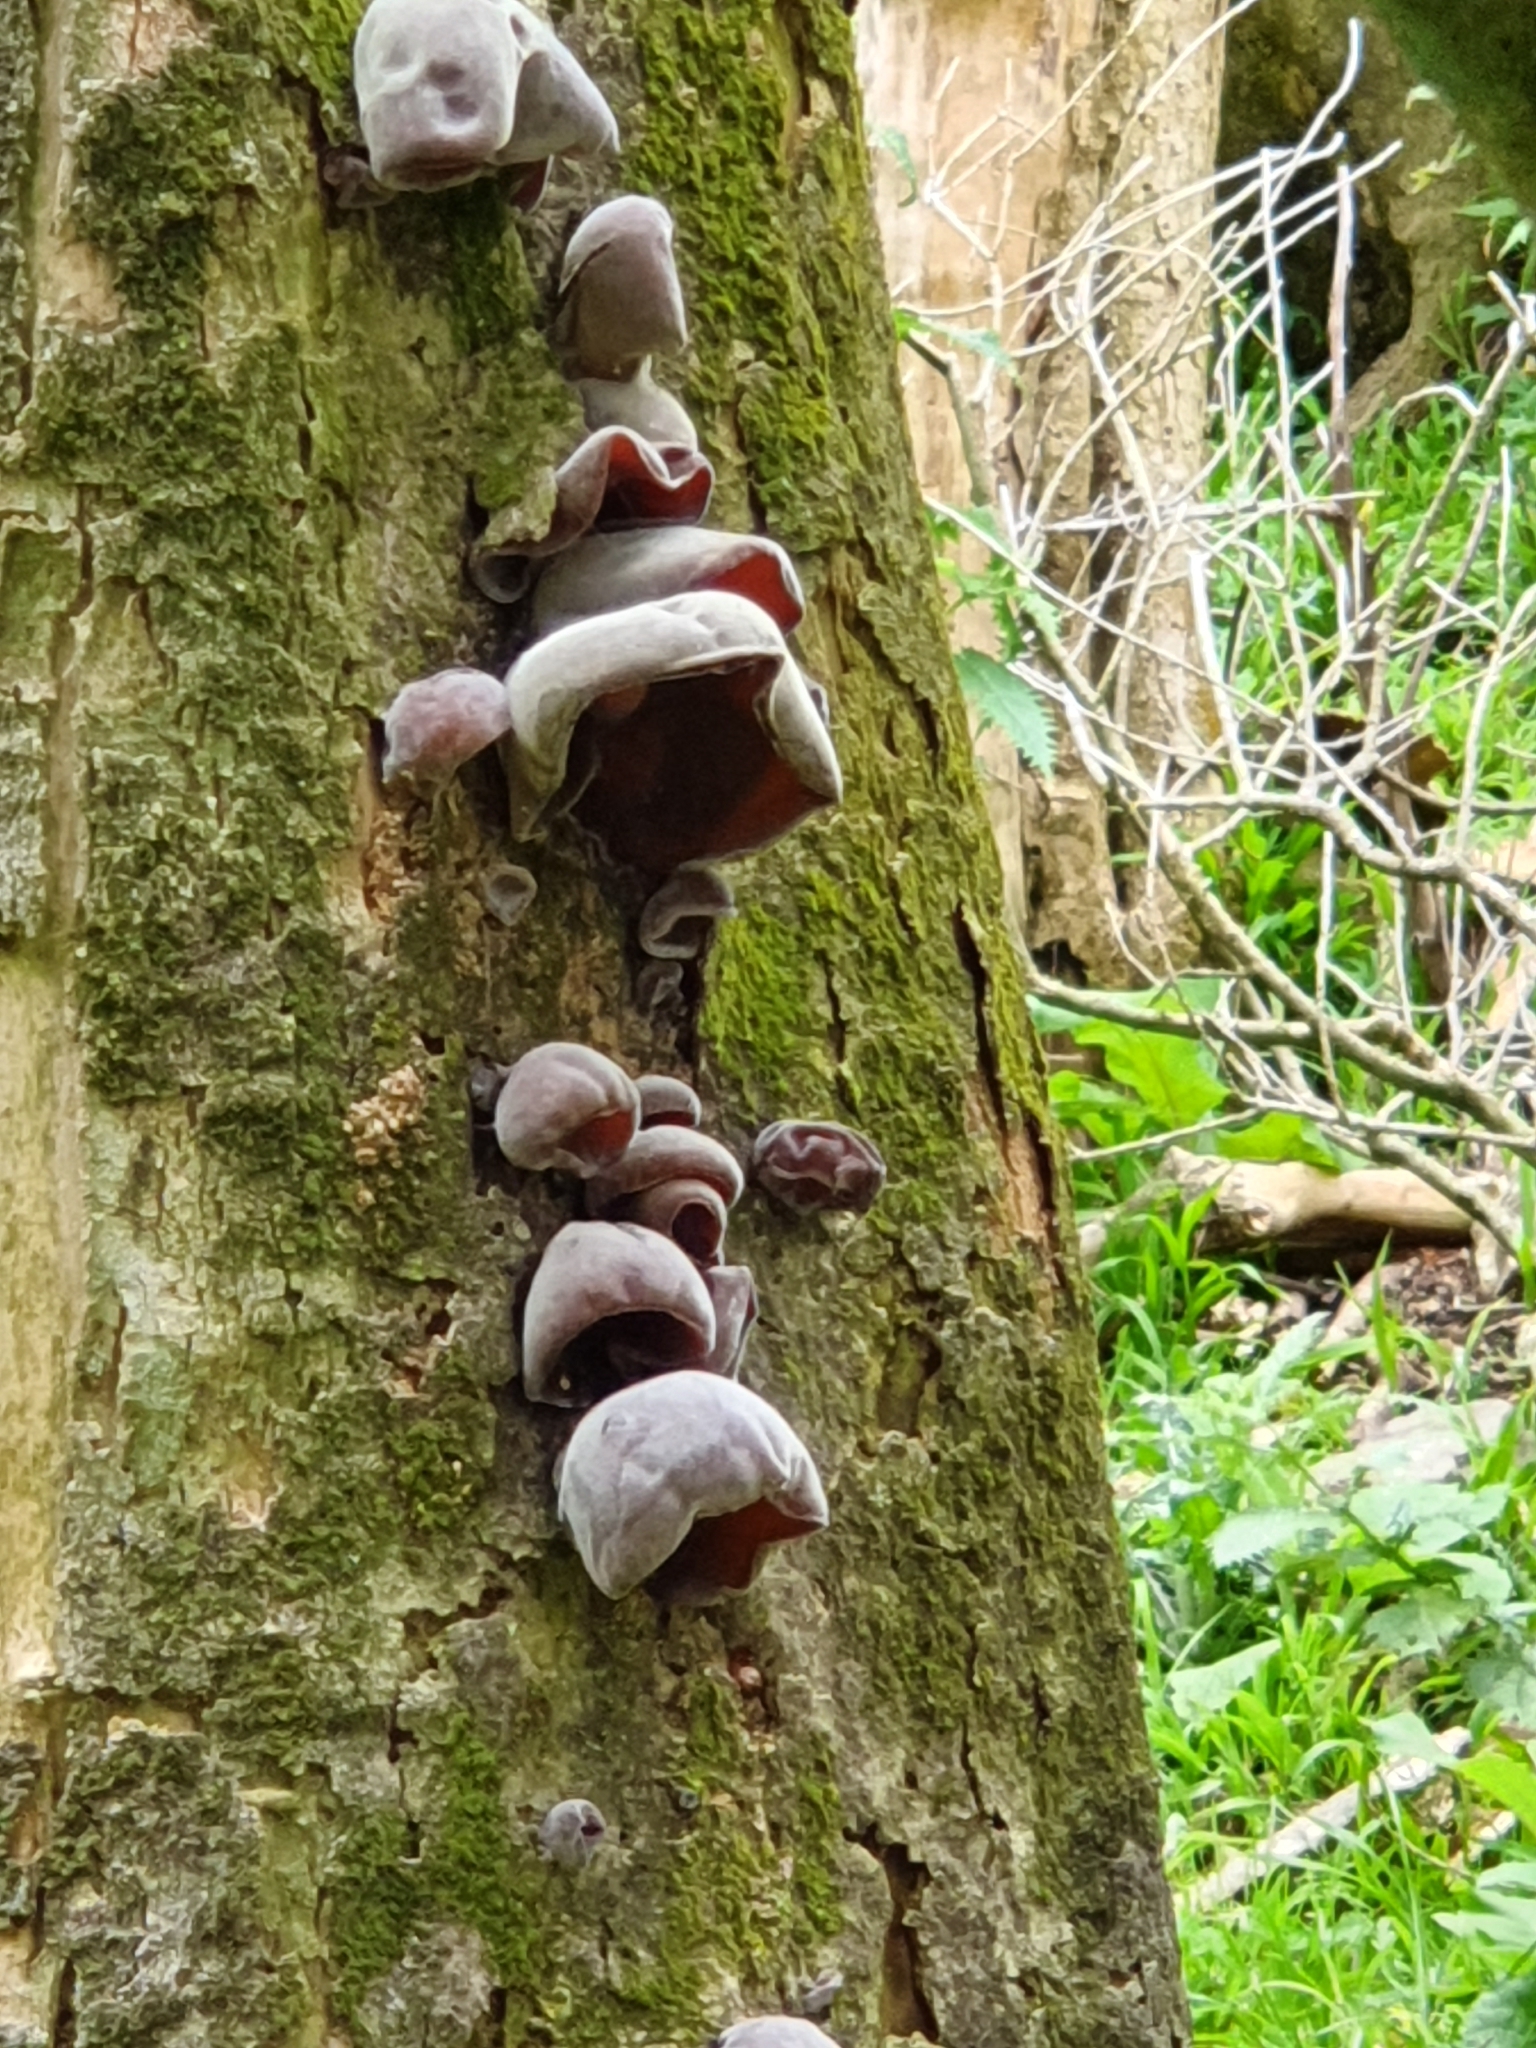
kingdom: Fungi
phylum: Basidiomycota
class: Agaricomycetes
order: Auriculariales
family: Auriculariaceae
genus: Auricularia
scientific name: Auricularia cornea
